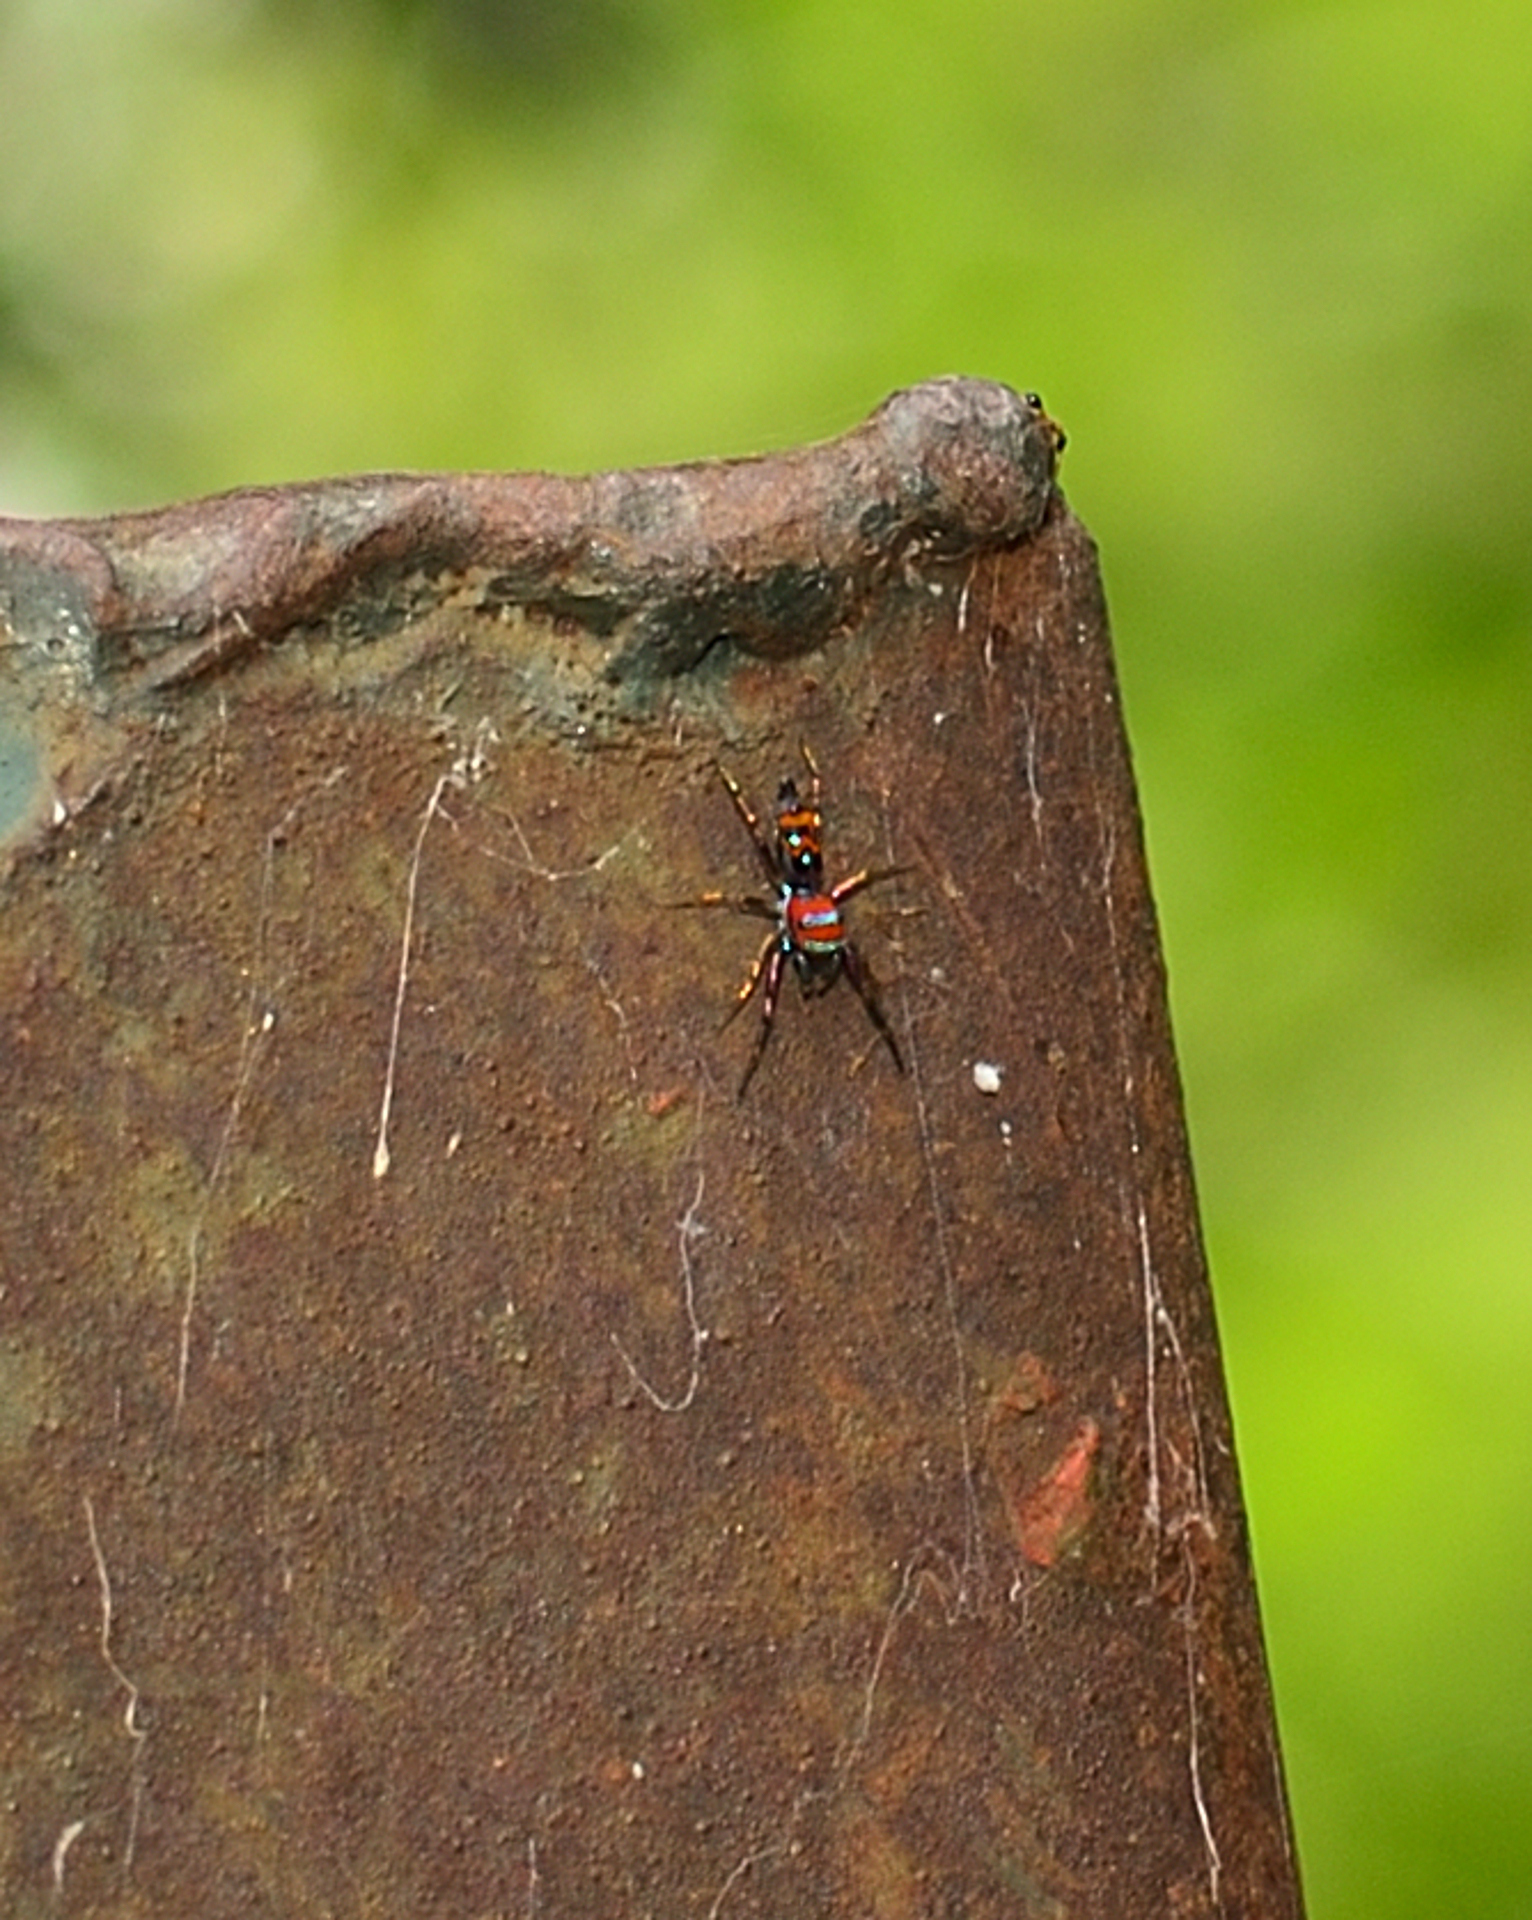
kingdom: Animalia
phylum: Arthropoda
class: Arachnida
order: Araneae
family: Salticidae
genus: Chrysilla
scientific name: Chrysilla volupe
